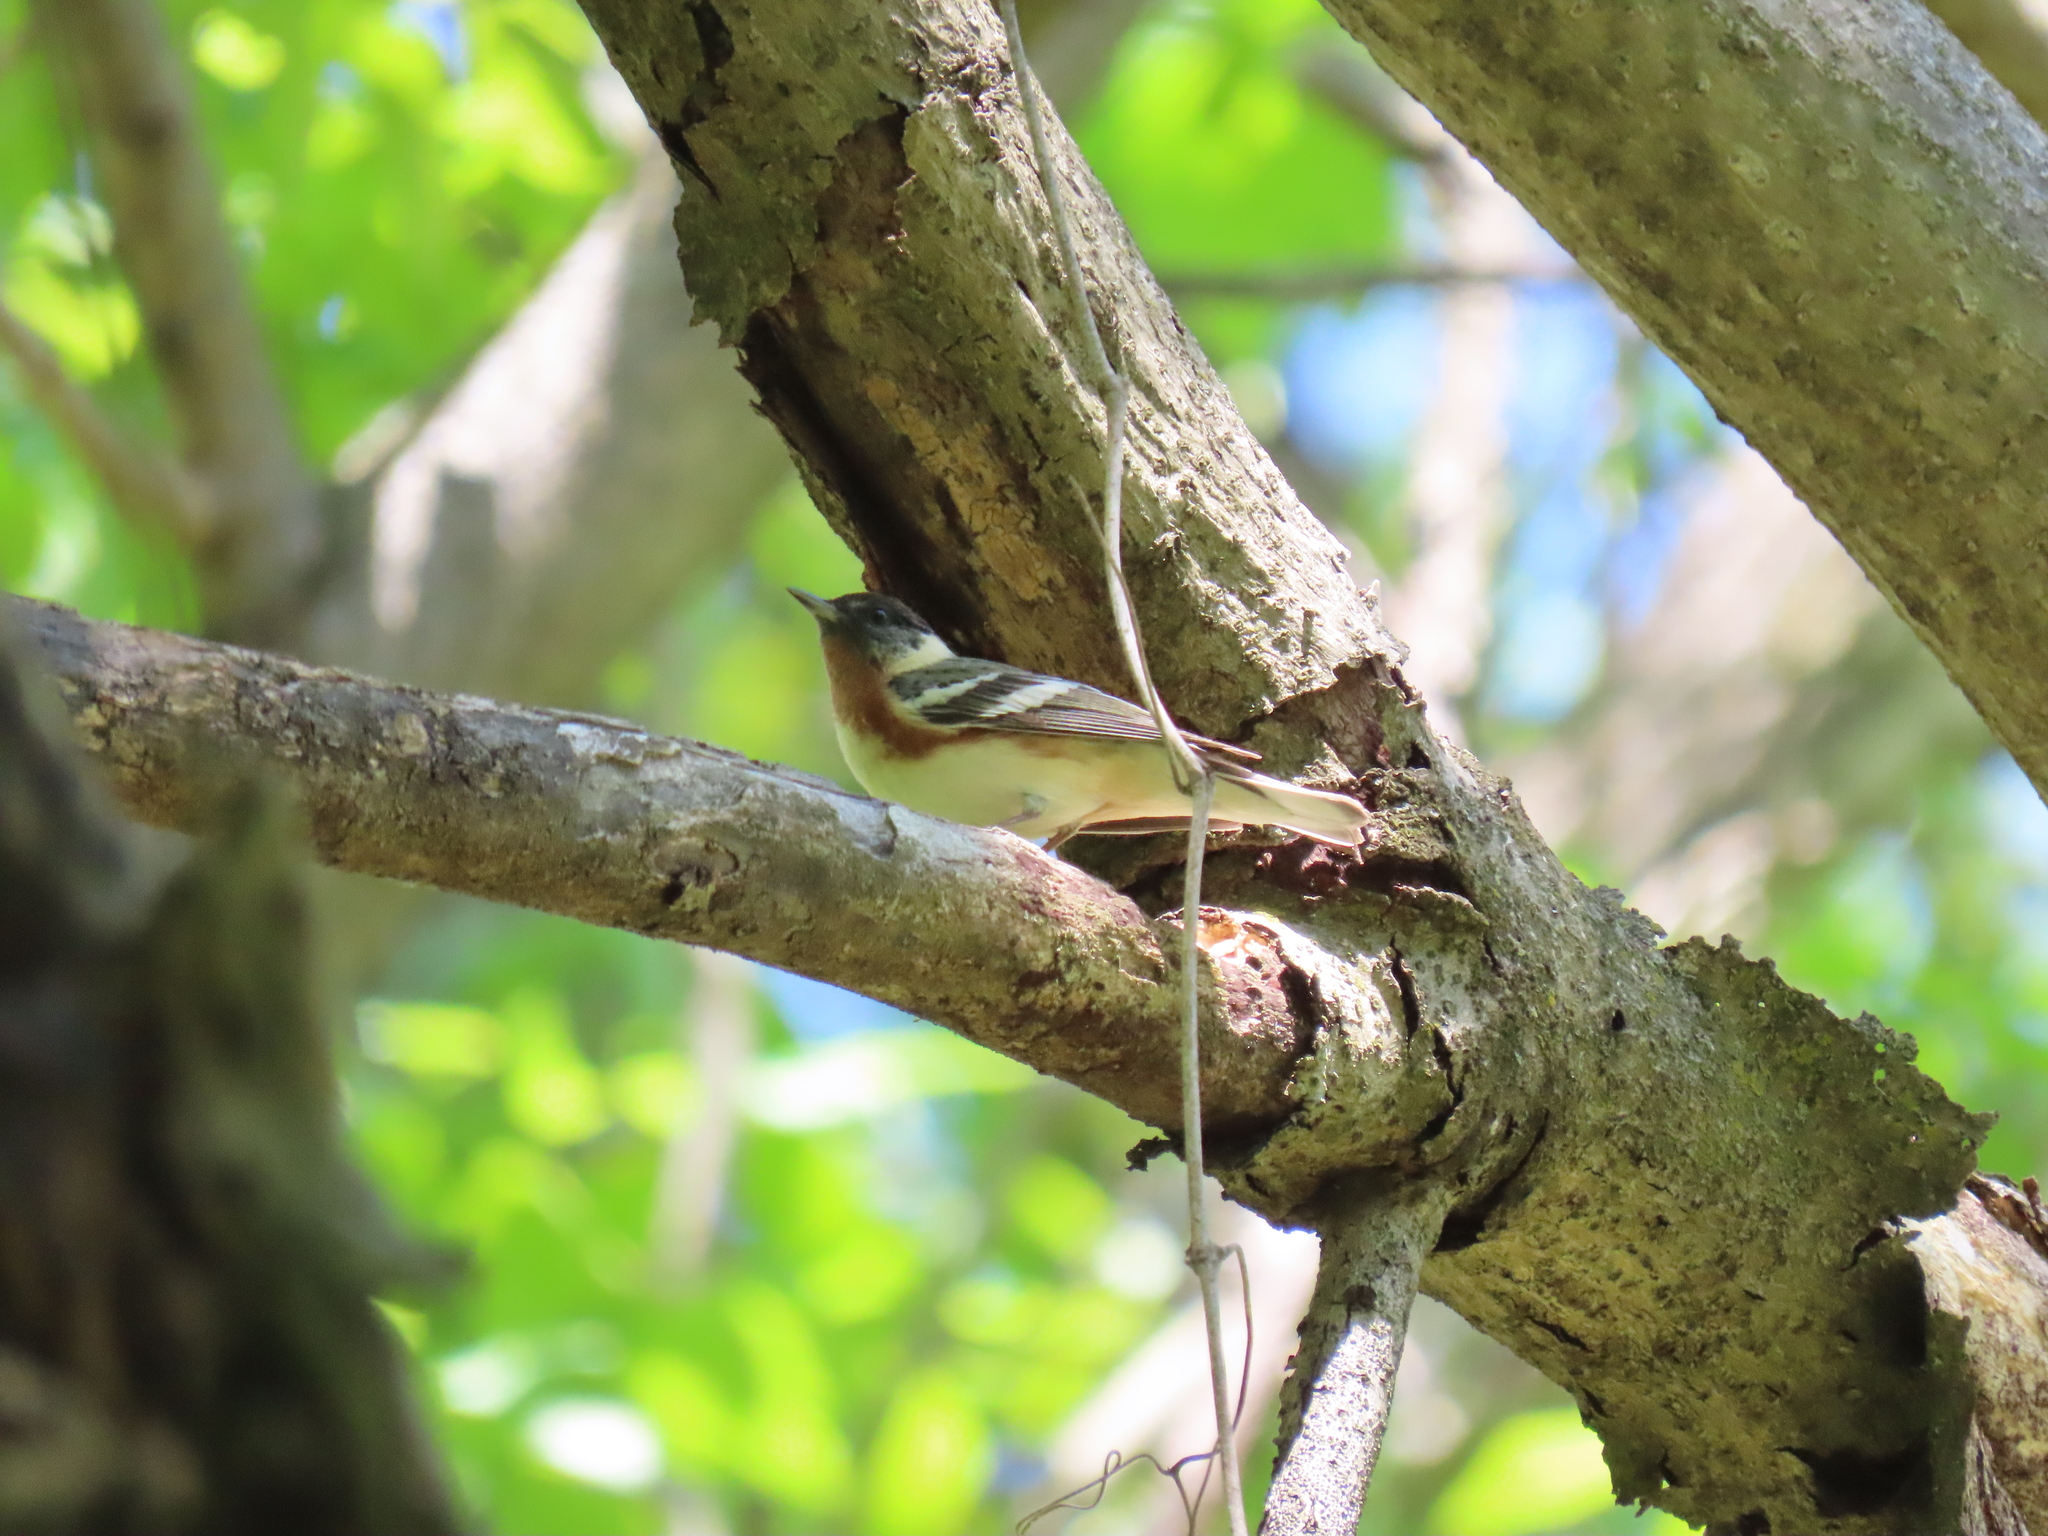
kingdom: Animalia
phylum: Chordata
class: Aves
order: Passeriformes
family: Parulidae
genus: Setophaga
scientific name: Setophaga castanea
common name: Bay-breasted warbler
